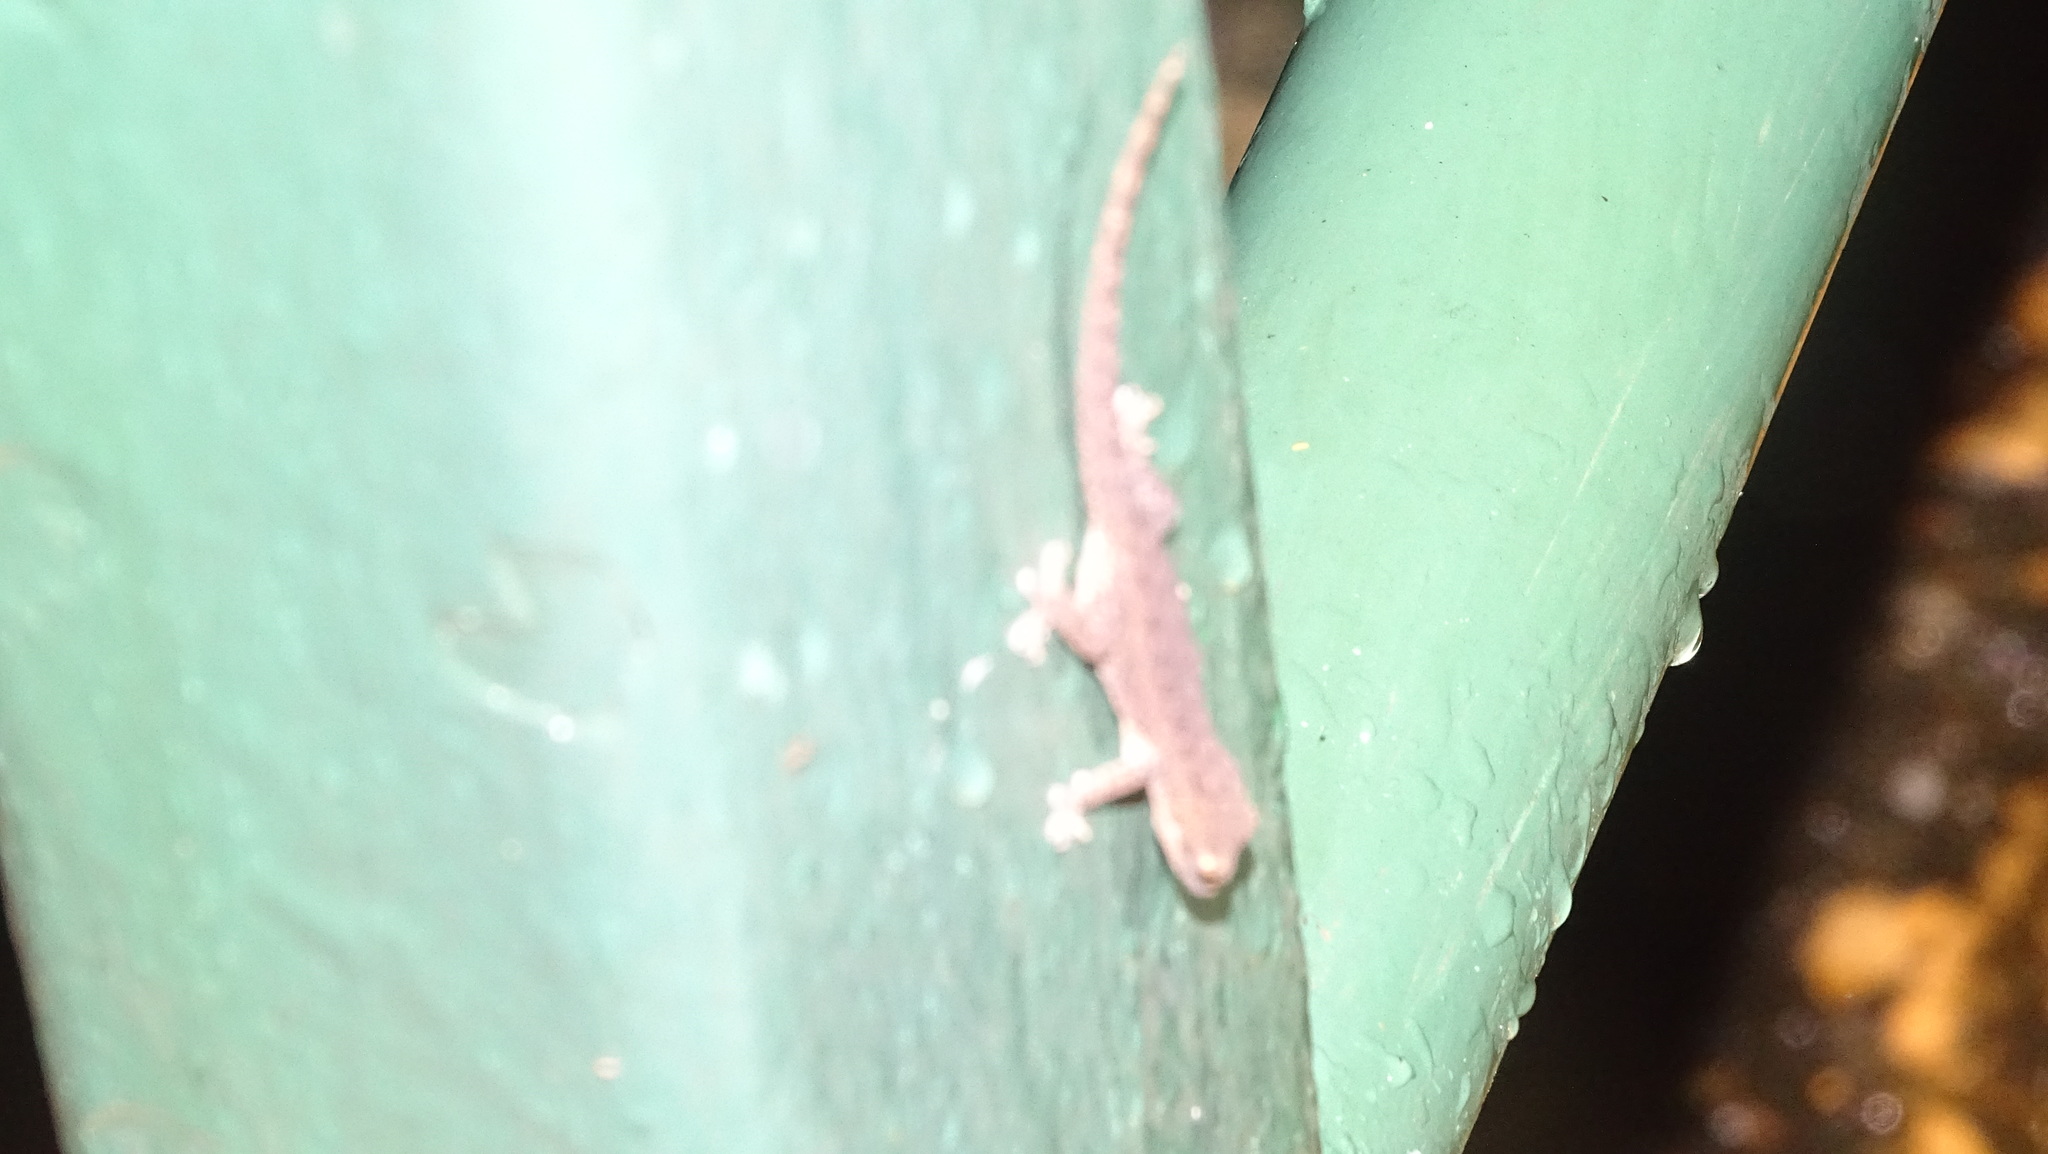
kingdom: Animalia
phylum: Chordata
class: Squamata
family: Gekkonidae
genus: Hemidactylus
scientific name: Hemidactylus frenatus
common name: Common house gecko
